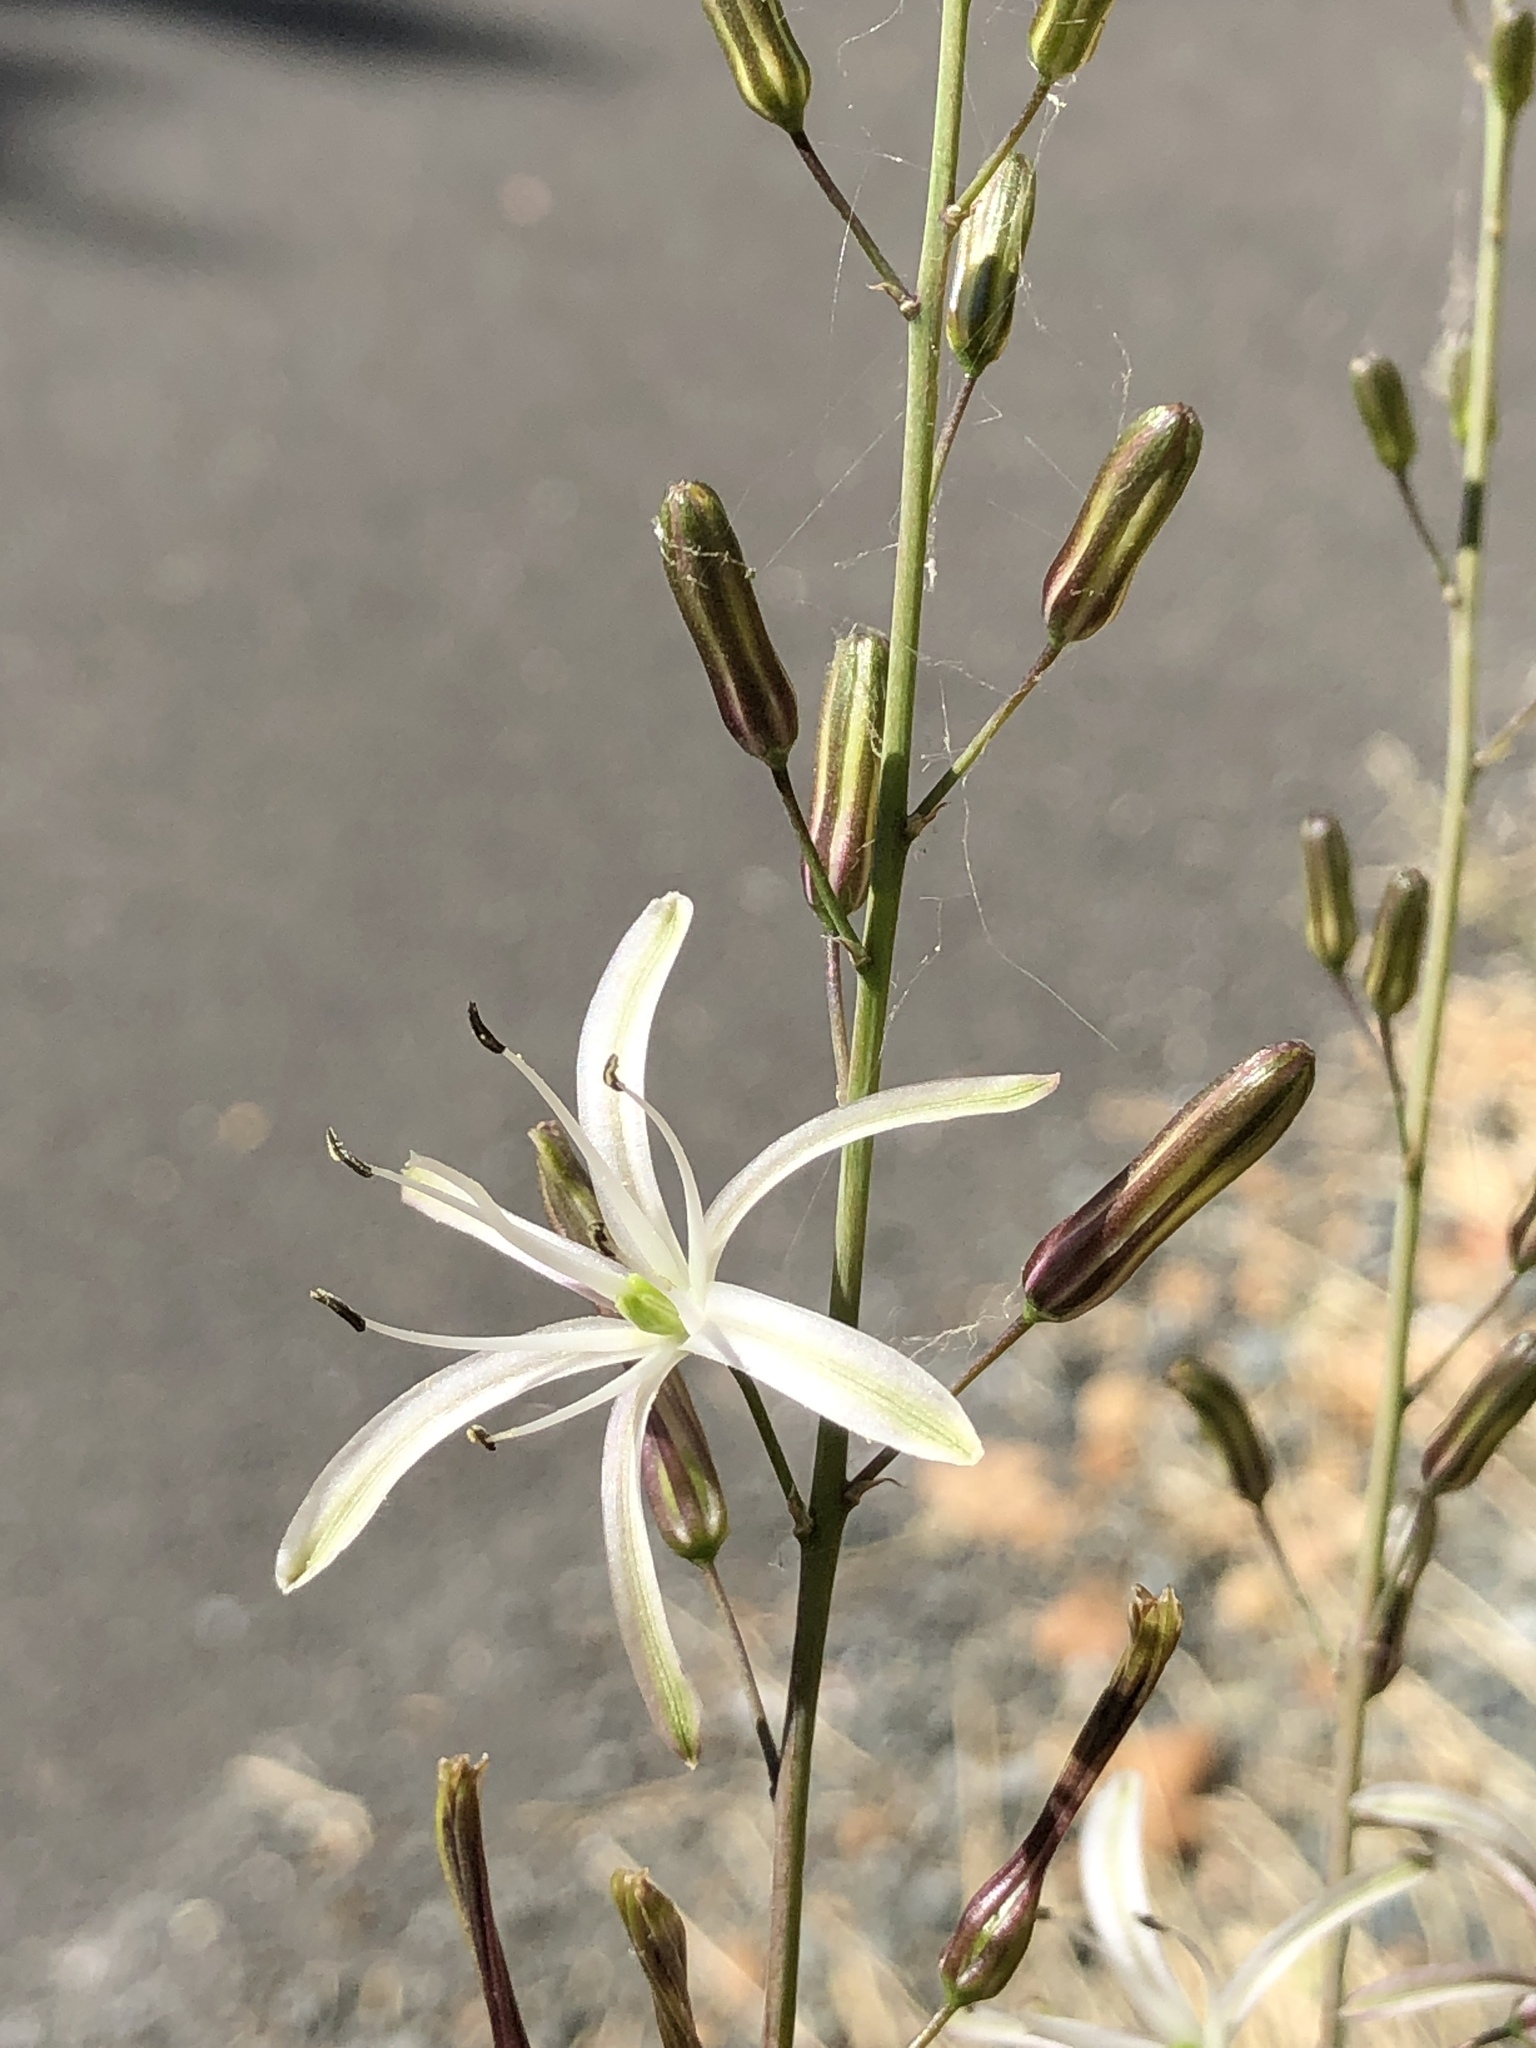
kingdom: Plantae
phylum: Tracheophyta
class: Liliopsida
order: Asparagales
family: Asparagaceae
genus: Chlorogalum
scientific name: Chlorogalum pomeridianum
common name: Amole
